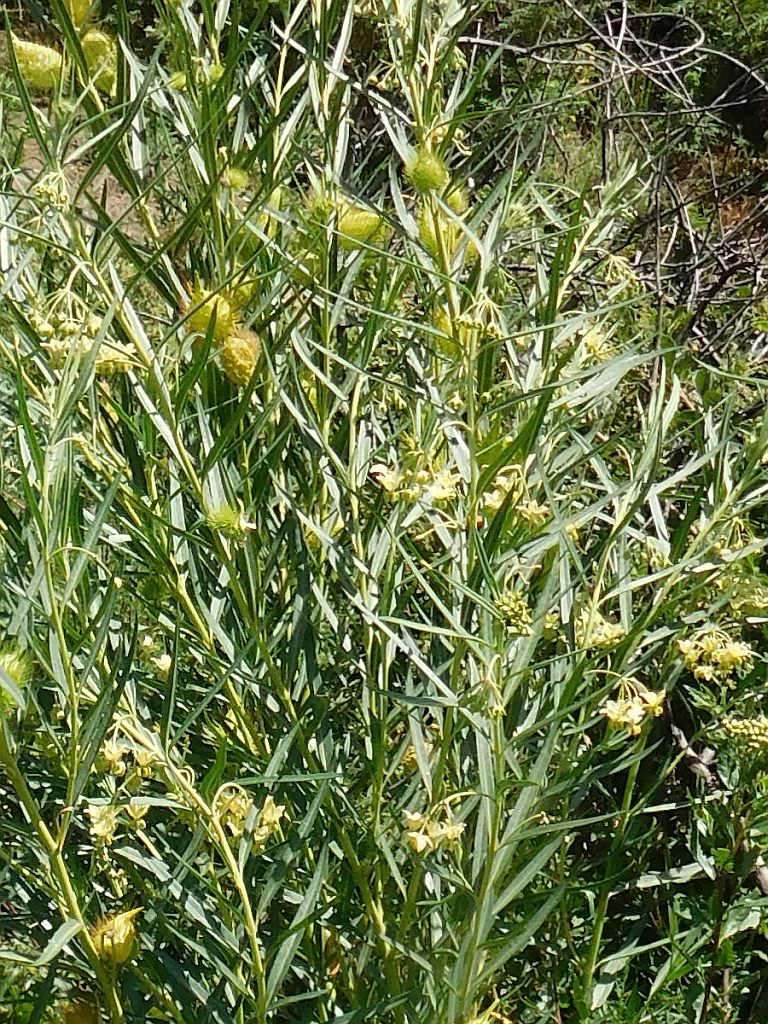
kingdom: Plantae
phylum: Tracheophyta
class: Magnoliopsida
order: Gentianales
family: Apocynaceae
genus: Gomphocarpus
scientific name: Gomphocarpus fruticosus
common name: Milkweed
